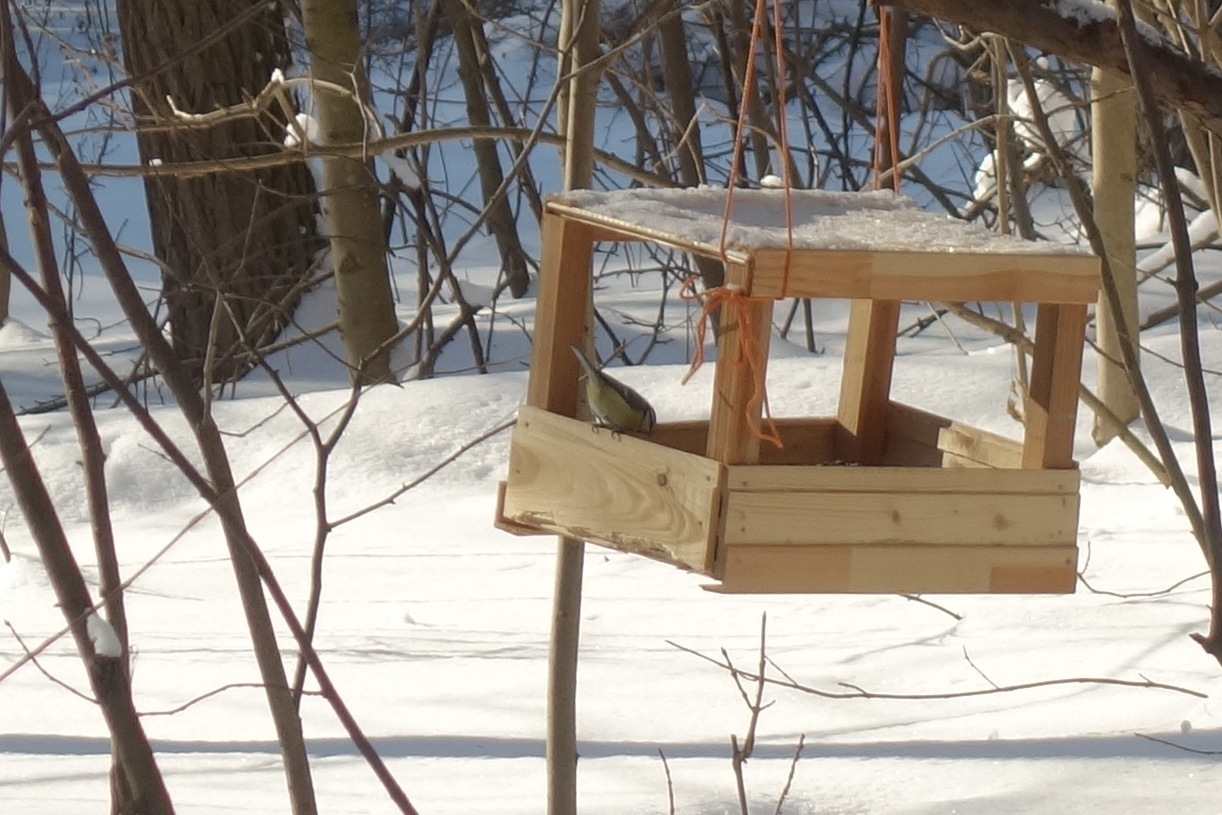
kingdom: Animalia
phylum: Chordata
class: Aves
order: Passeriformes
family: Paridae
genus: Cyanistes
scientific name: Cyanistes caeruleus
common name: Eurasian blue tit
